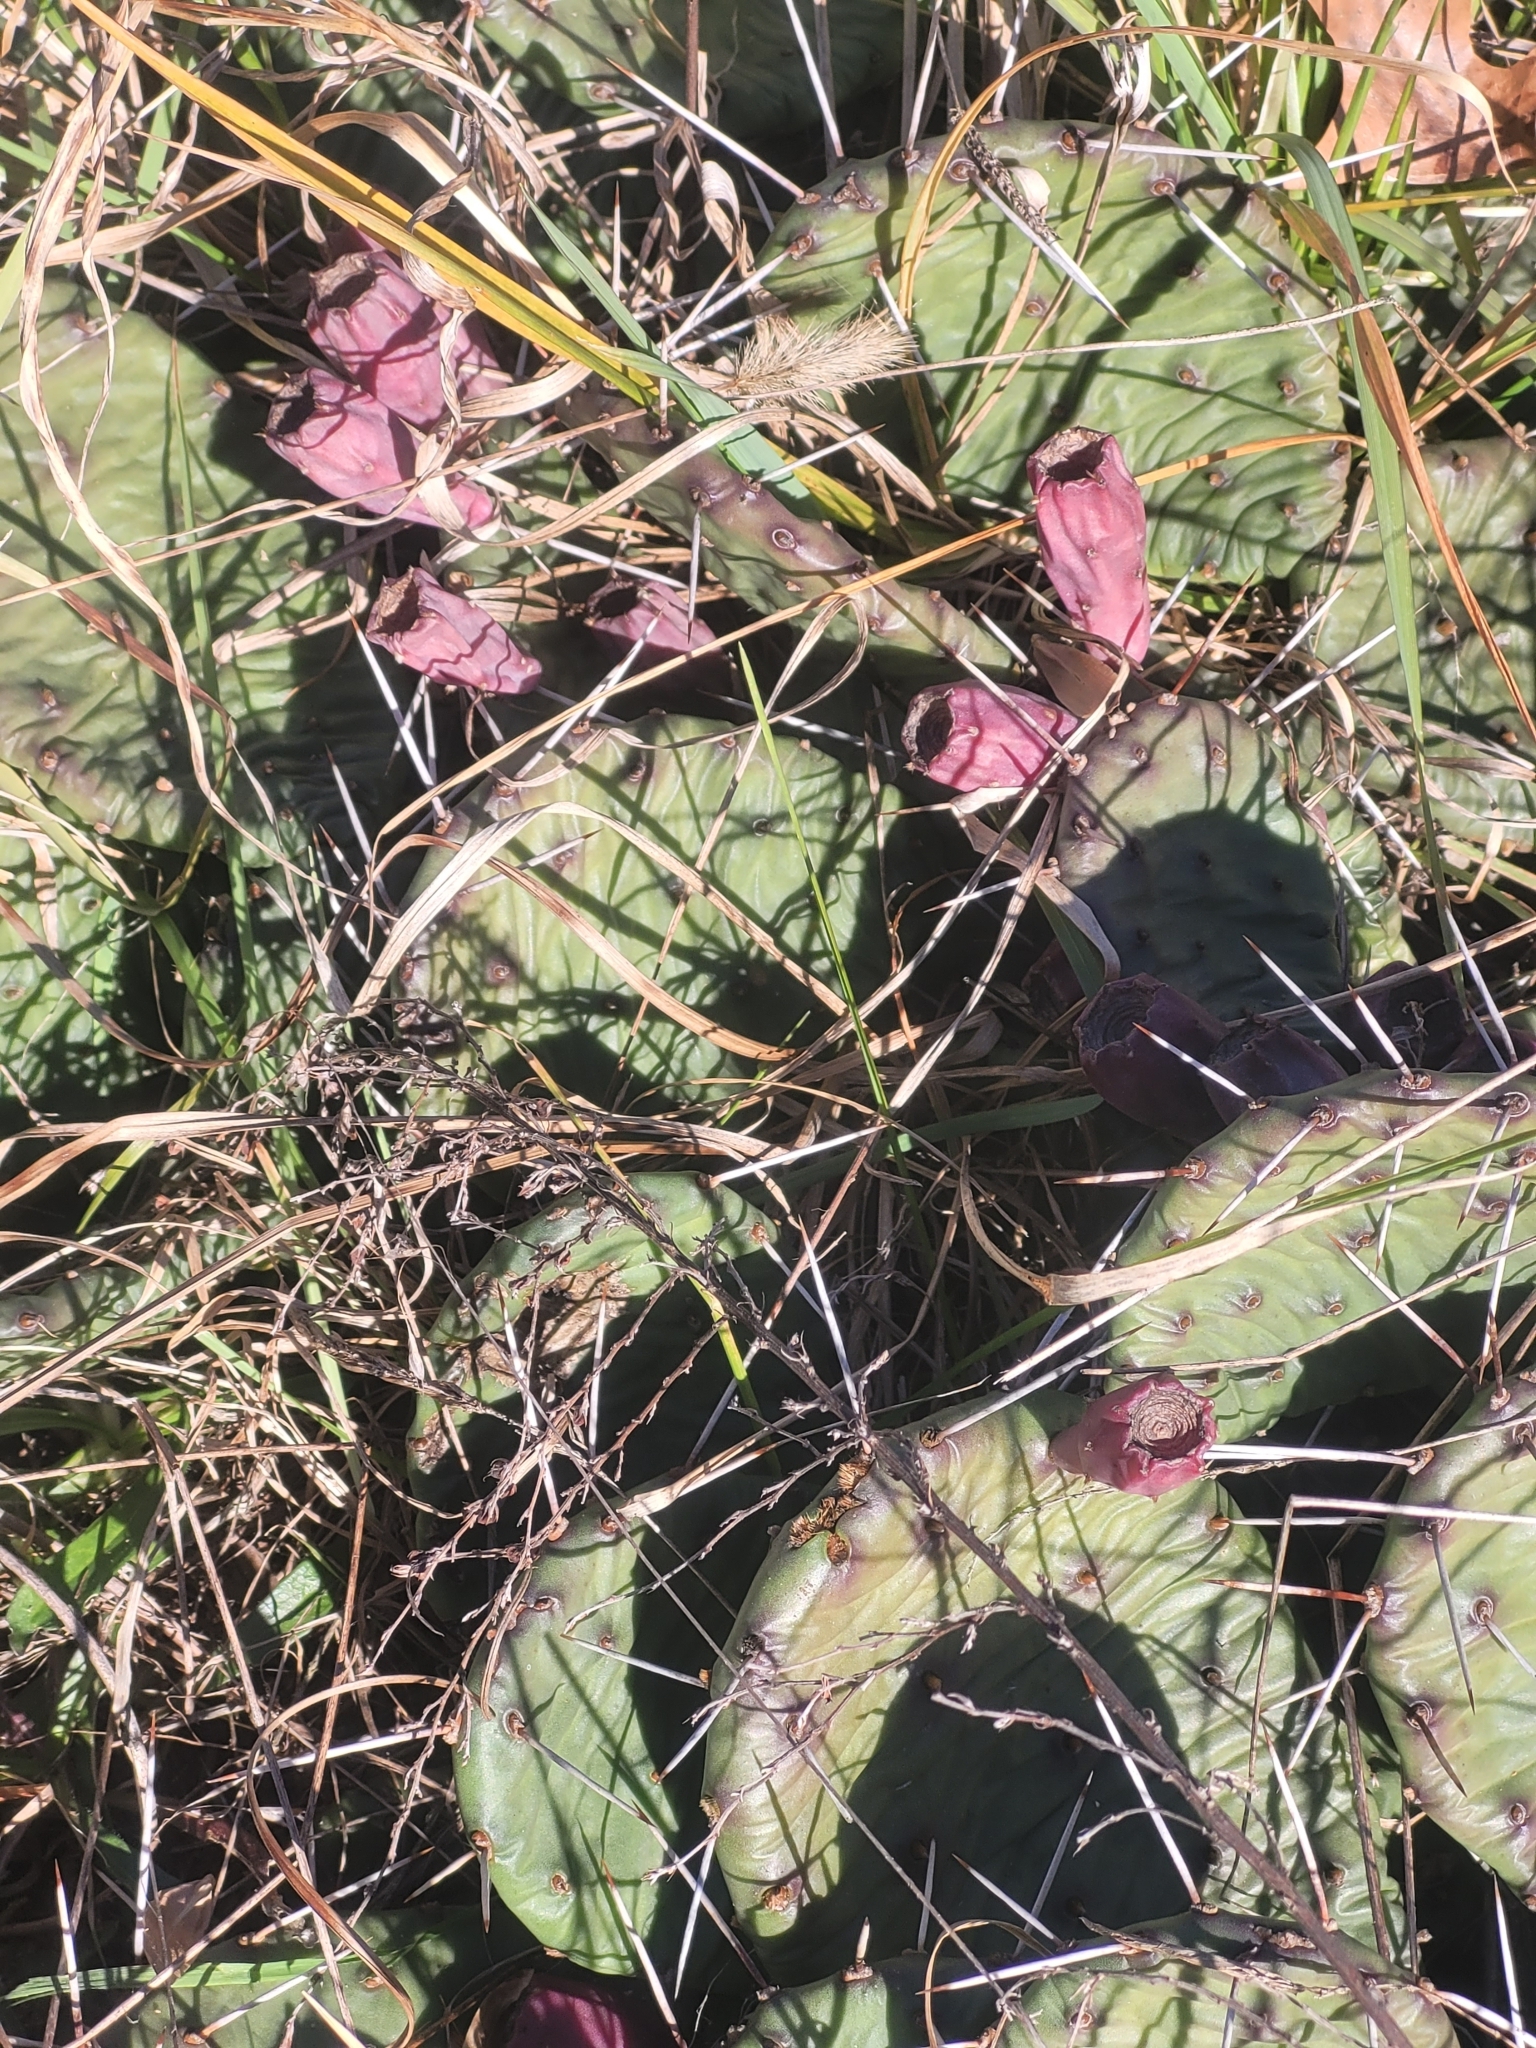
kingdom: Plantae
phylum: Tracheophyta
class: Magnoliopsida
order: Caryophyllales
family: Cactaceae
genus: Opuntia
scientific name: Opuntia mesacantha
